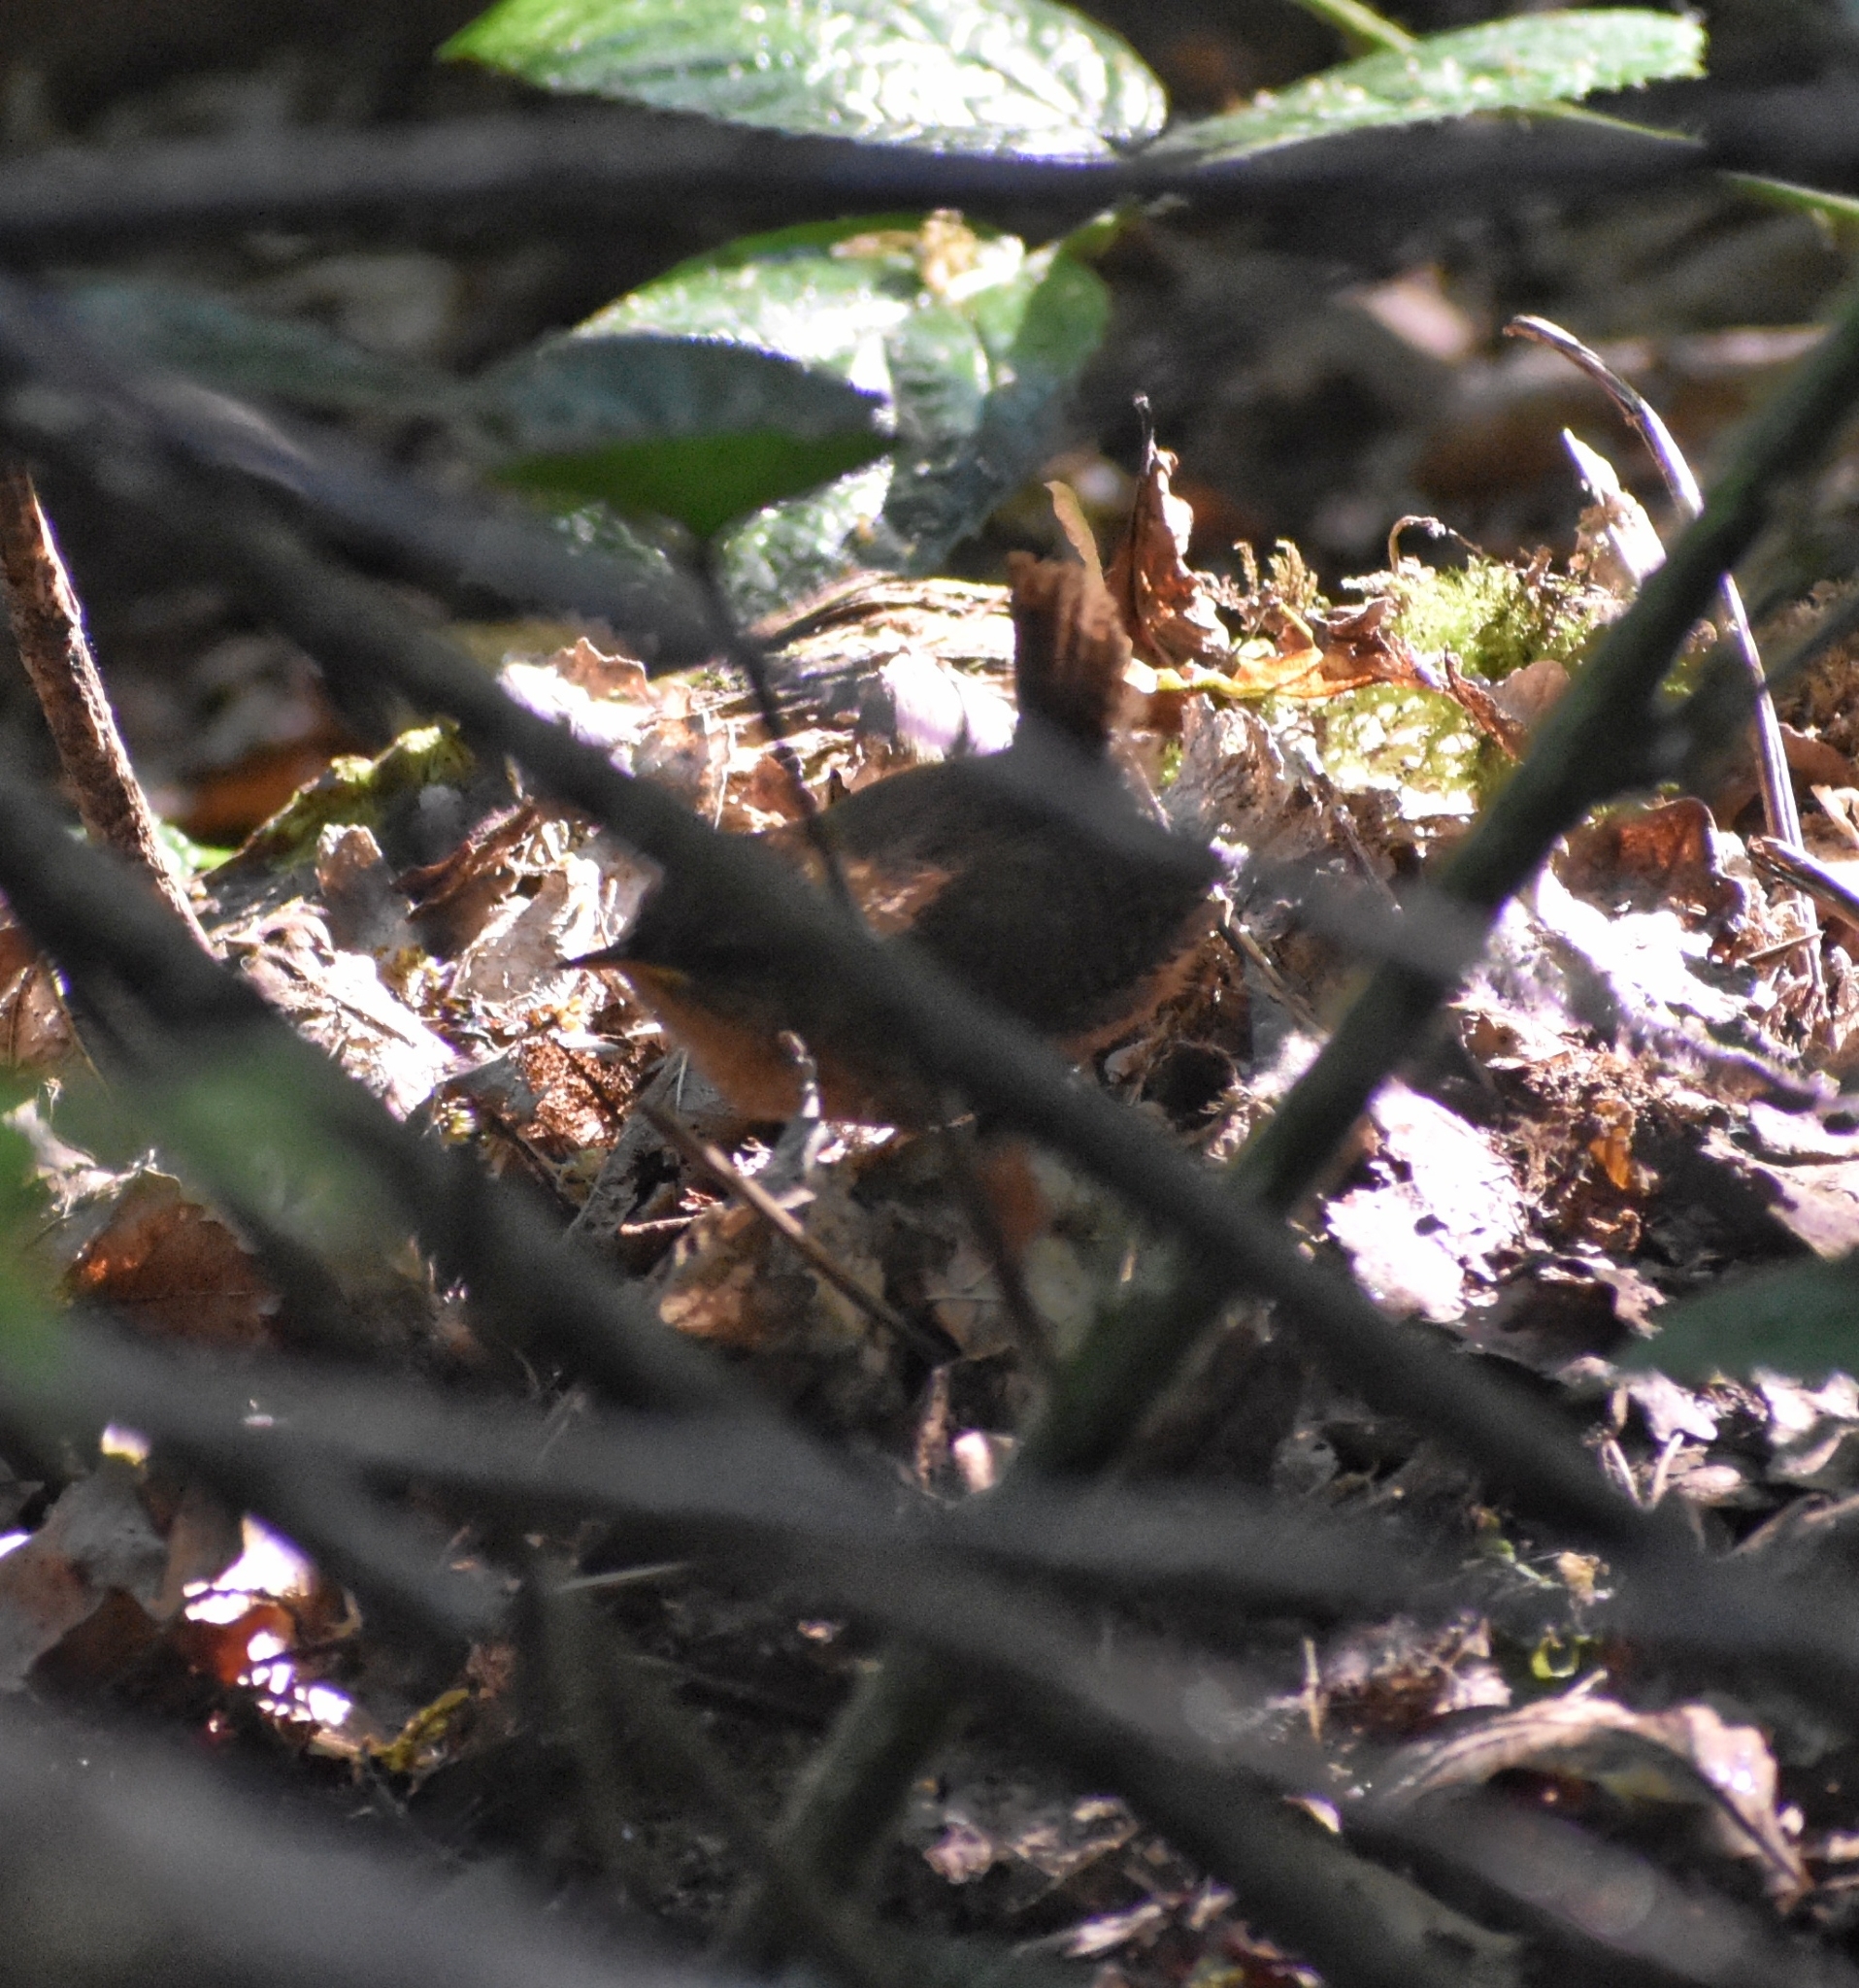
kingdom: Animalia
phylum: Chordata
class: Aves
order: Passeriformes
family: Troglodytidae
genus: Troglodytes
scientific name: Troglodytes troglodytes
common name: Eurasian wren
